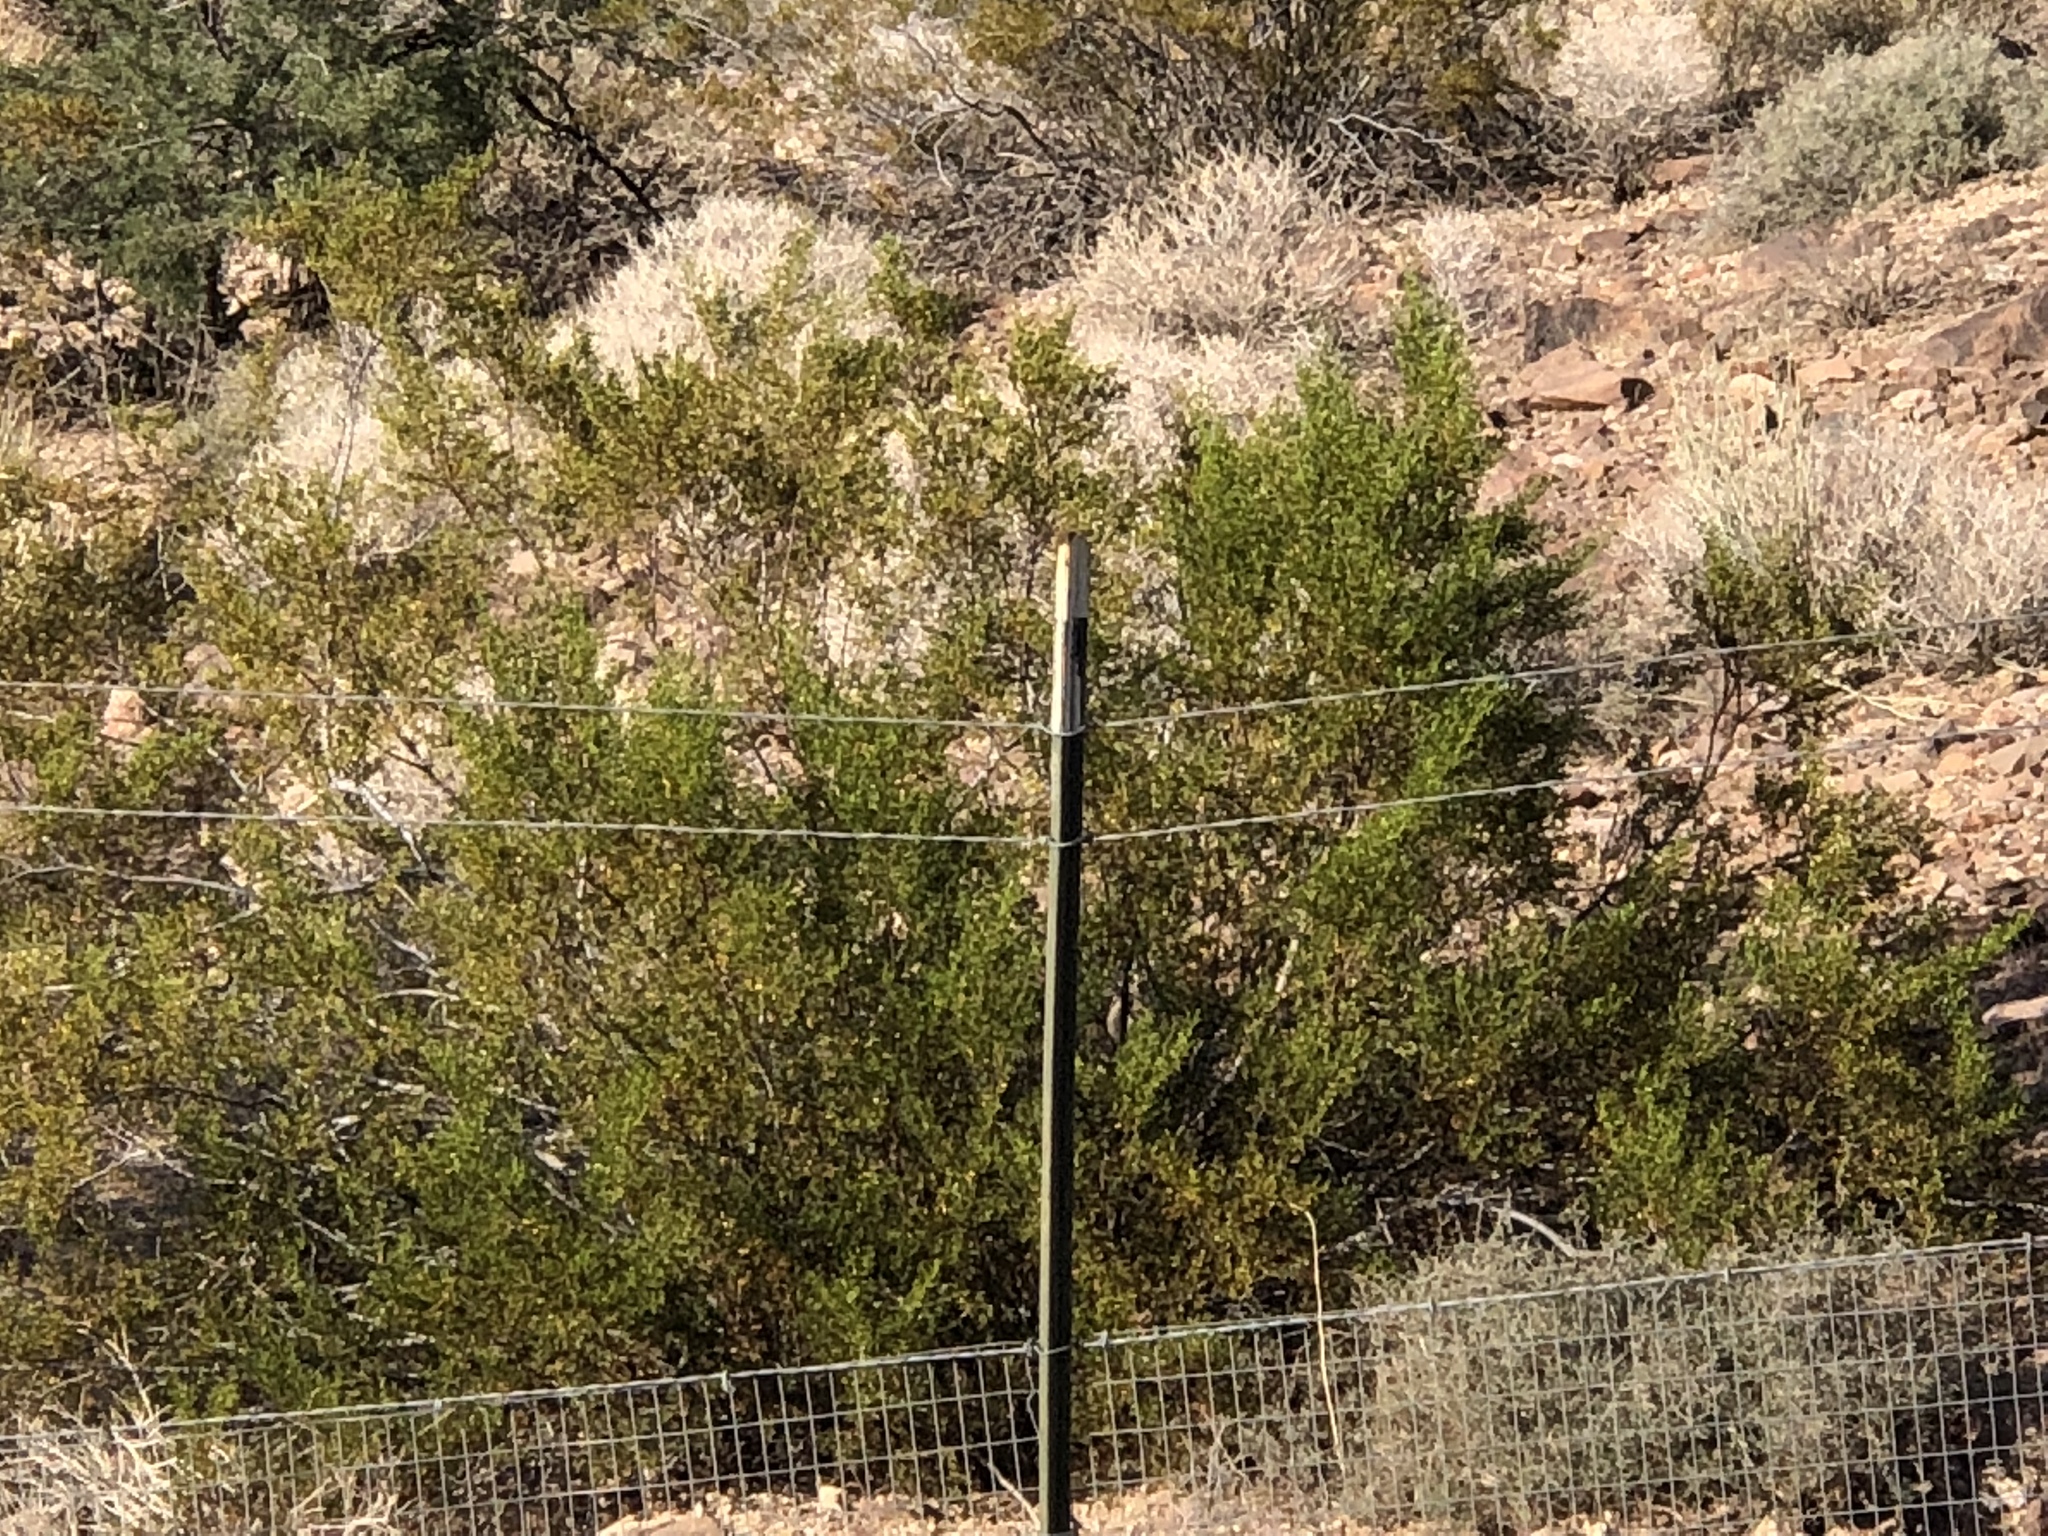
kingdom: Plantae
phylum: Tracheophyta
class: Magnoliopsida
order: Zygophyllales
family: Zygophyllaceae
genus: Larrea
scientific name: Larrea tridentata
